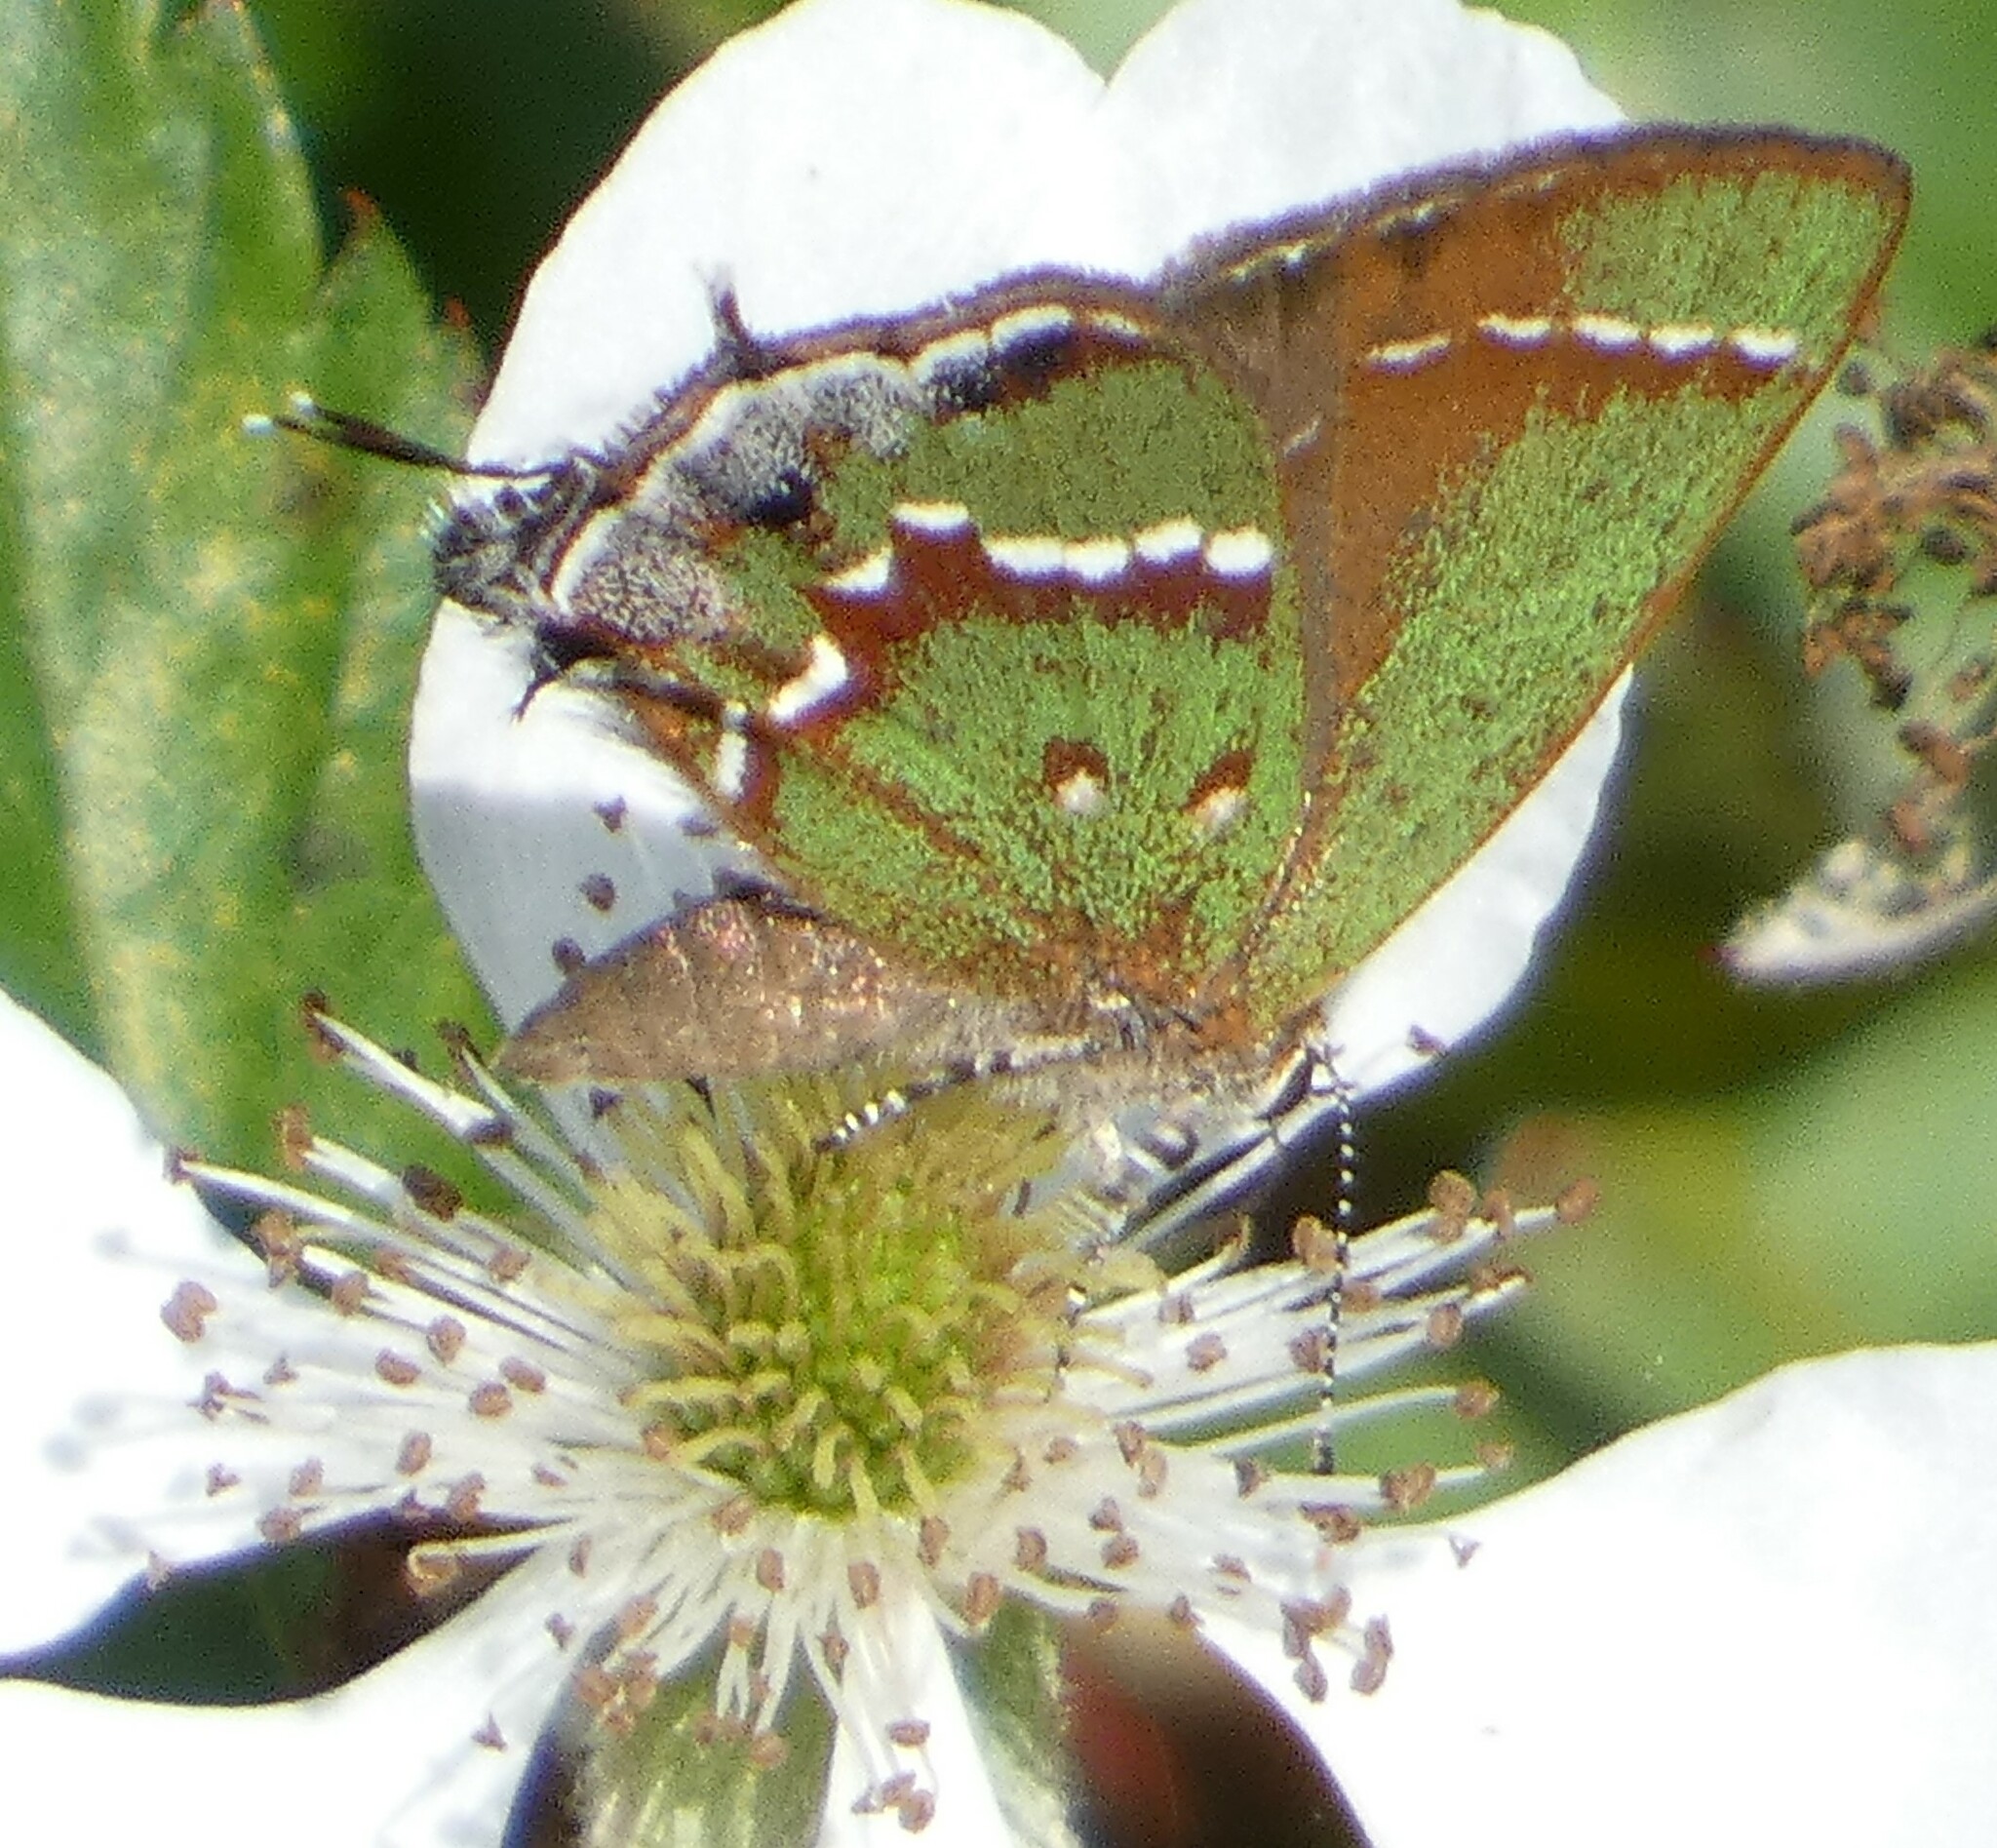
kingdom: Animalia
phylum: Arthropoda
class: Insecta
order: Lepidoptera
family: Lycaenidae
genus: Mitoura
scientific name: Mitoura gryneus
